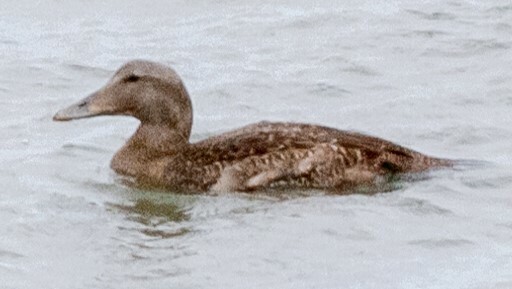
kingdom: Animalia
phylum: Chordata
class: Aves
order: Anseriformes
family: Anatidae
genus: Somateria
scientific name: Somateria mollissima
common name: Common eider
